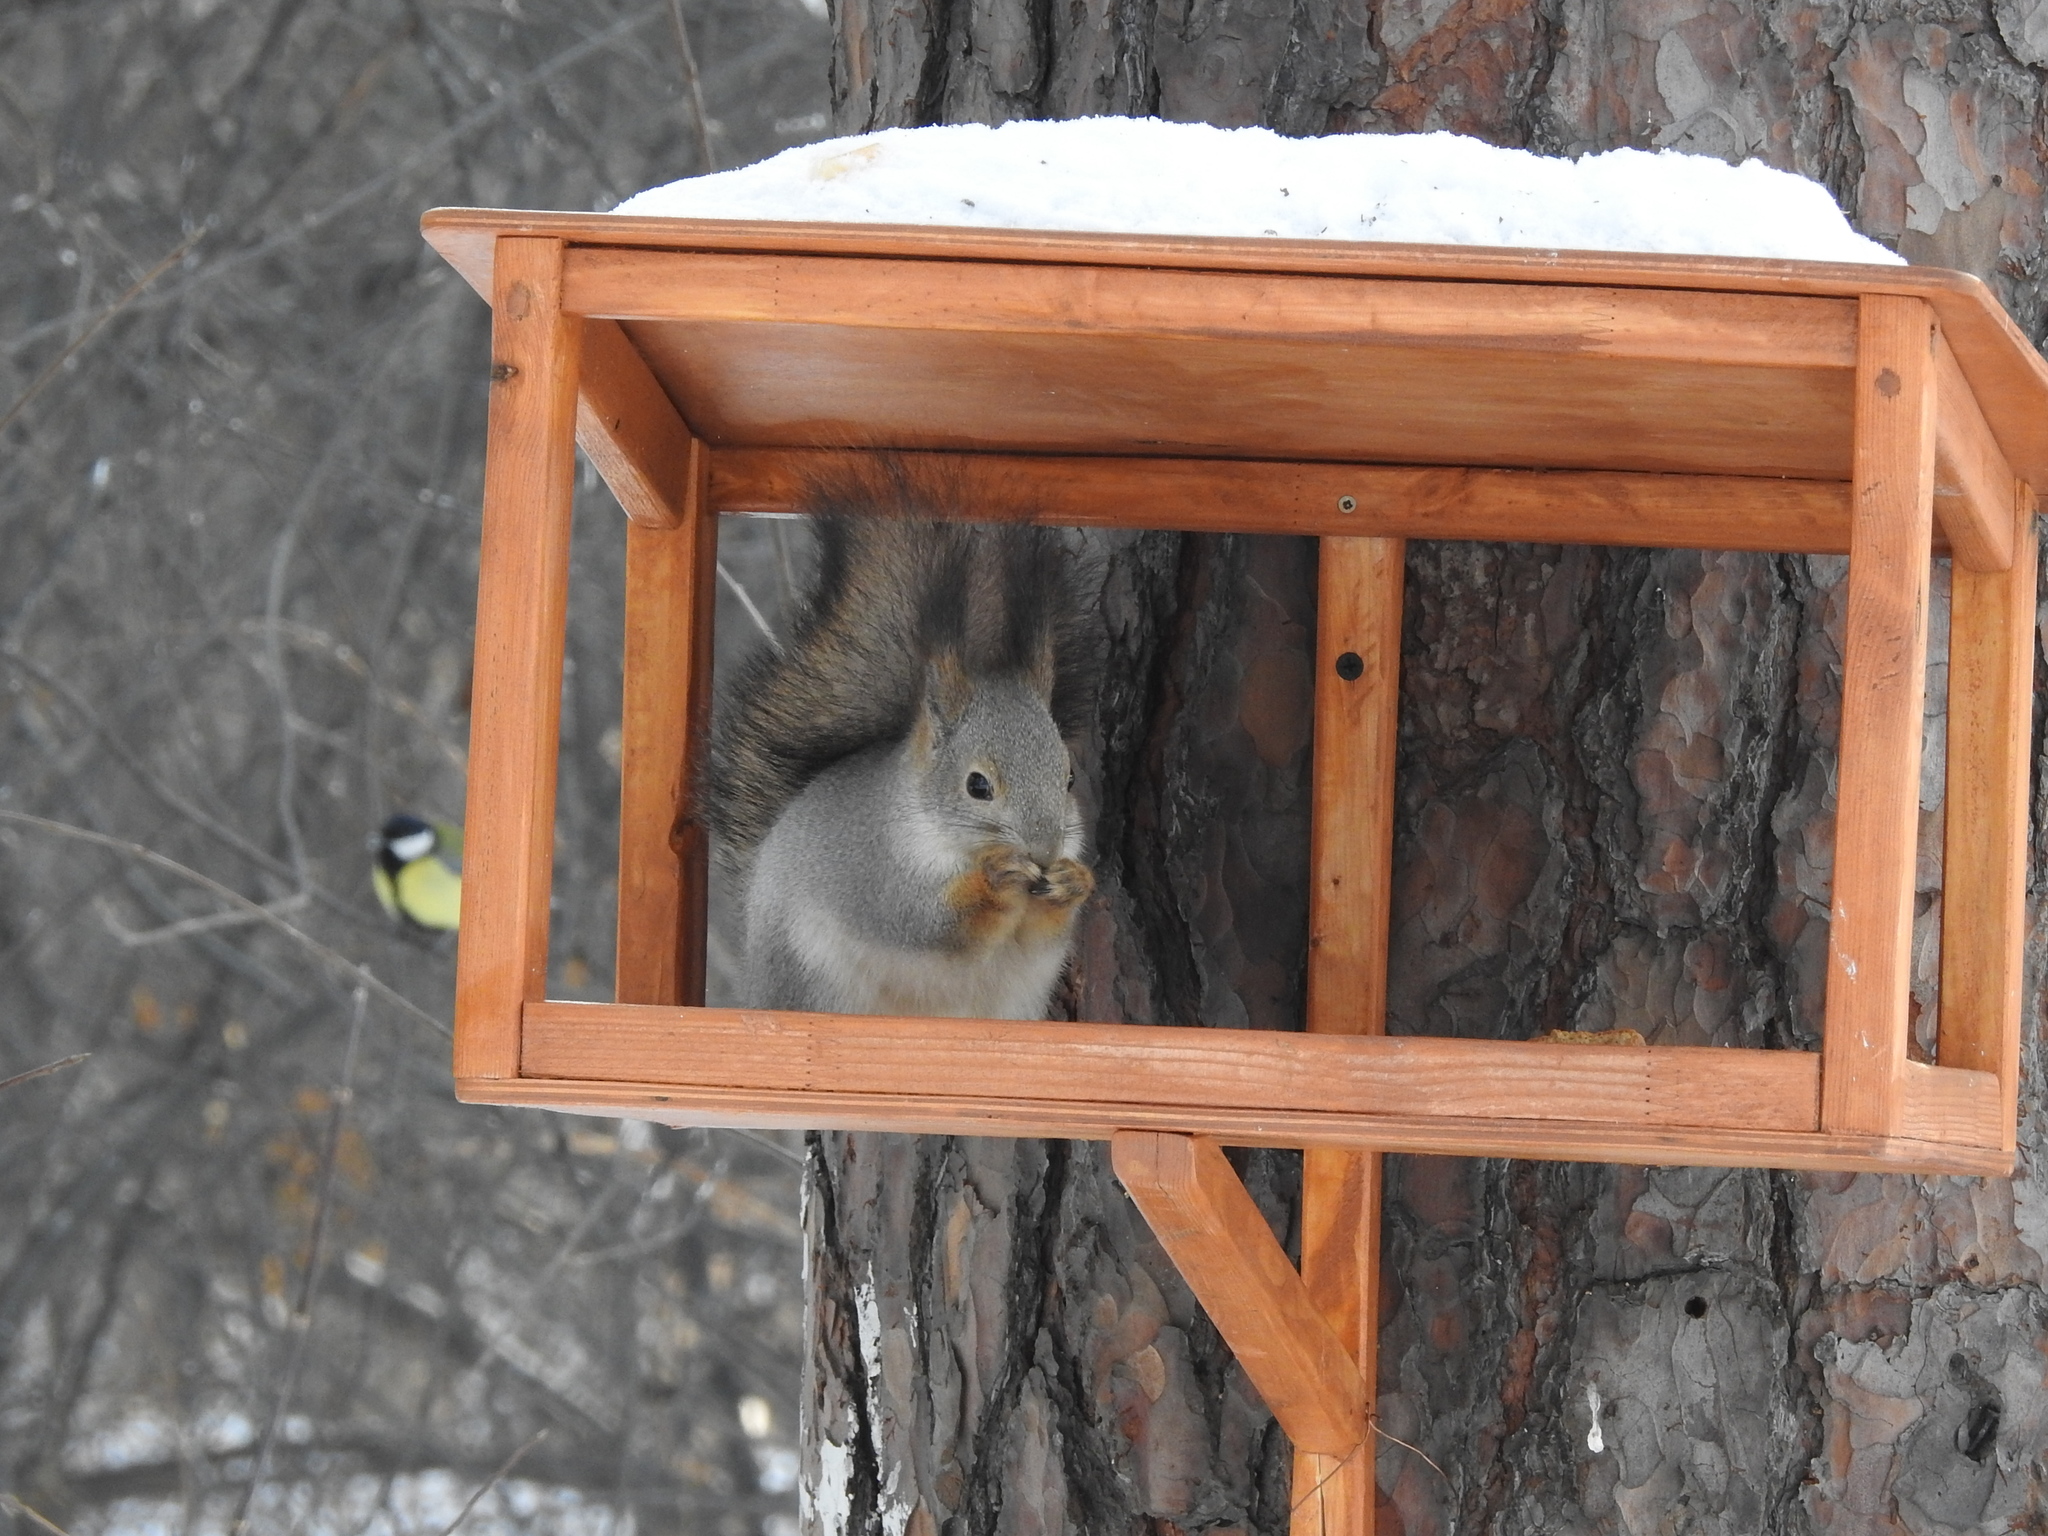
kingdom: Animalia
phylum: Chordata
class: Mammalia
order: Rodentia
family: Sciuridae
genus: Sciurus
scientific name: Sciurus vulgaris
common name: Eurasian red squirrel
